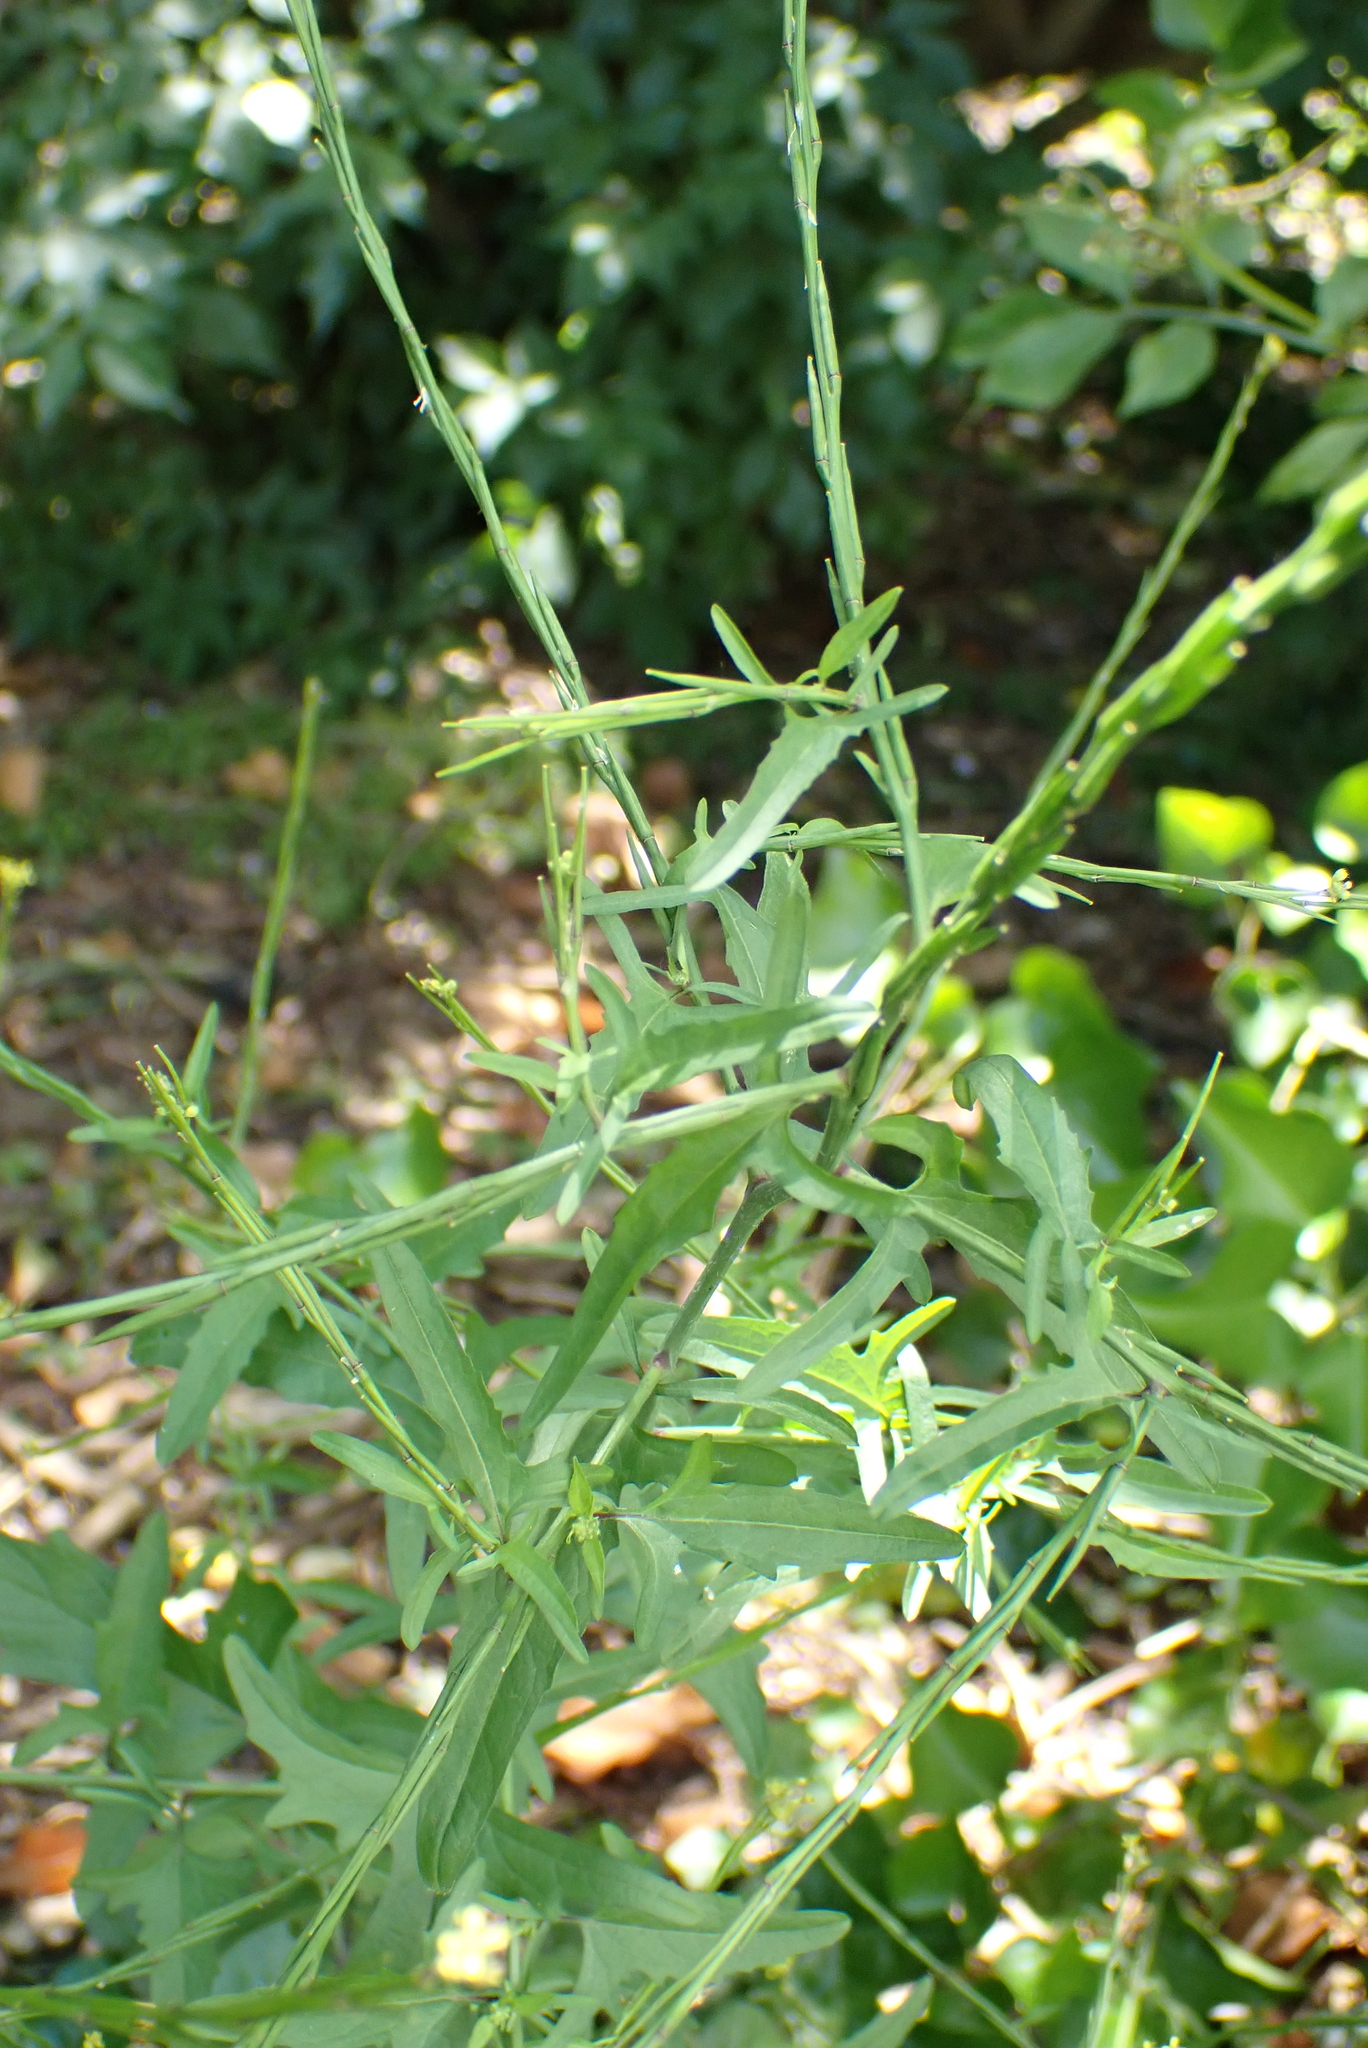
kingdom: Plantae
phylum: Tracheophyta
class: Magnoliopsida
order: Brassicales
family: Brassicaceae
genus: Sisymbrium
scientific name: Sisymbrium officinale
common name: Hedge mustard
